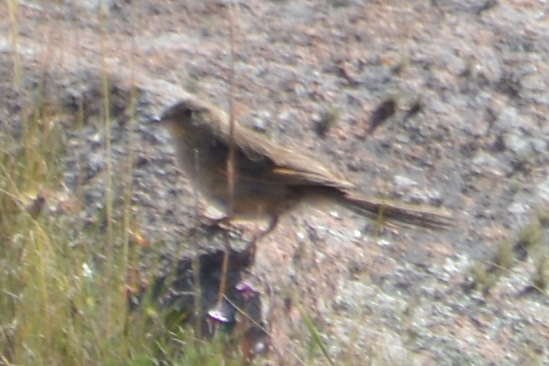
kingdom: Animalia
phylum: Chordata
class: Aves
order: Passeriformes
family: Furnariidae
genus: Asthenes
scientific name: Asthenes wyatti
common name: Streak-backed canastero
